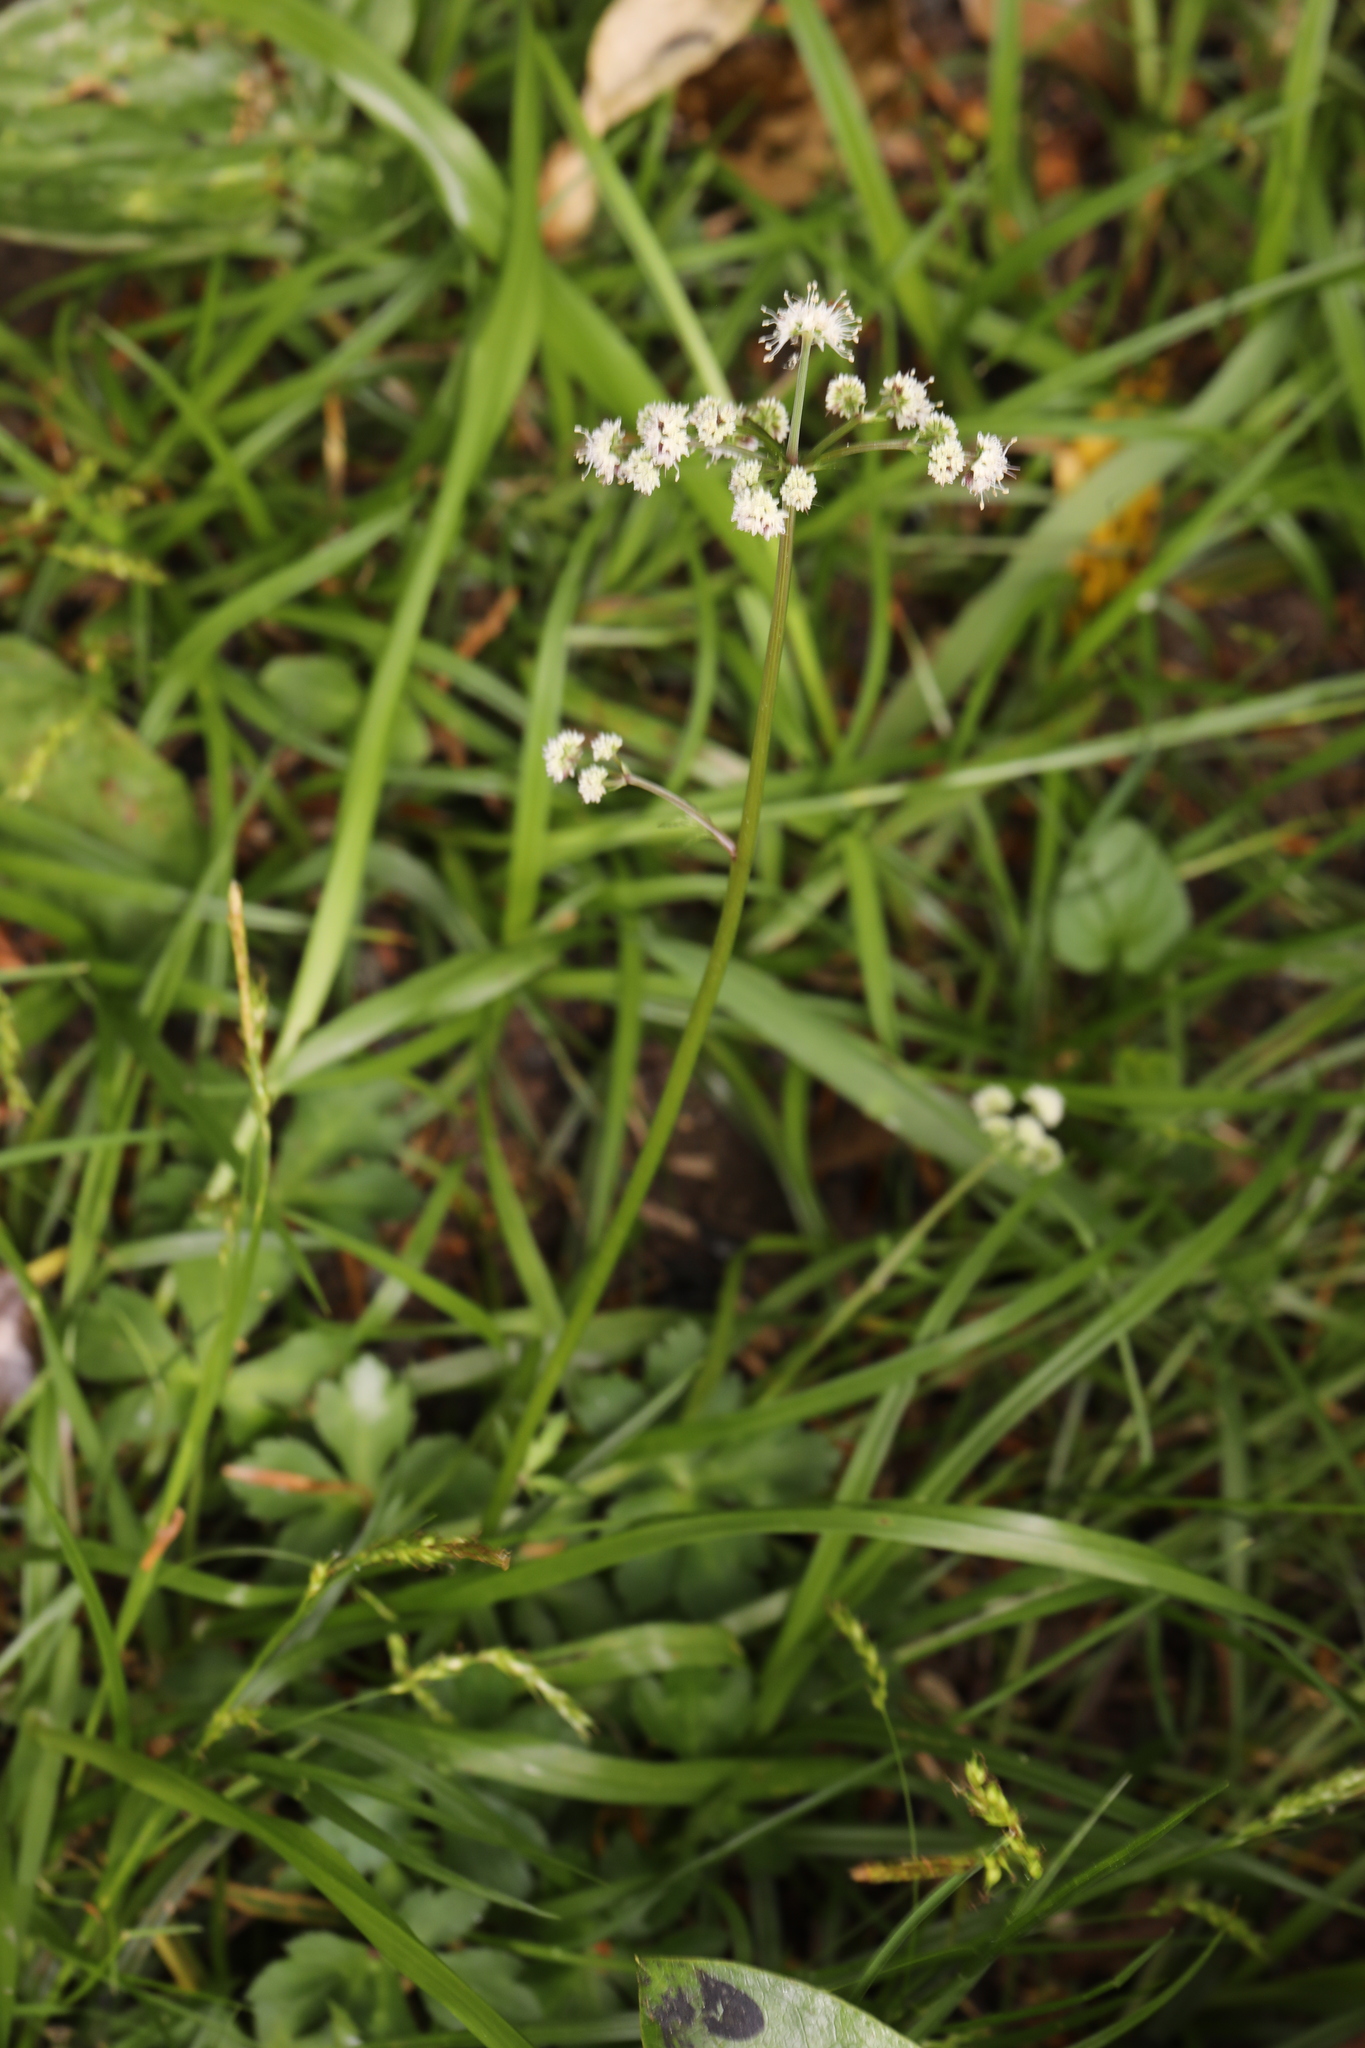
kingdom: Plantae
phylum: Tracheophyta
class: Magnoliopsida
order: Apiales
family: Apiaceae
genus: Sanicula
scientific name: Sanicula europaea
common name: Sanicle
